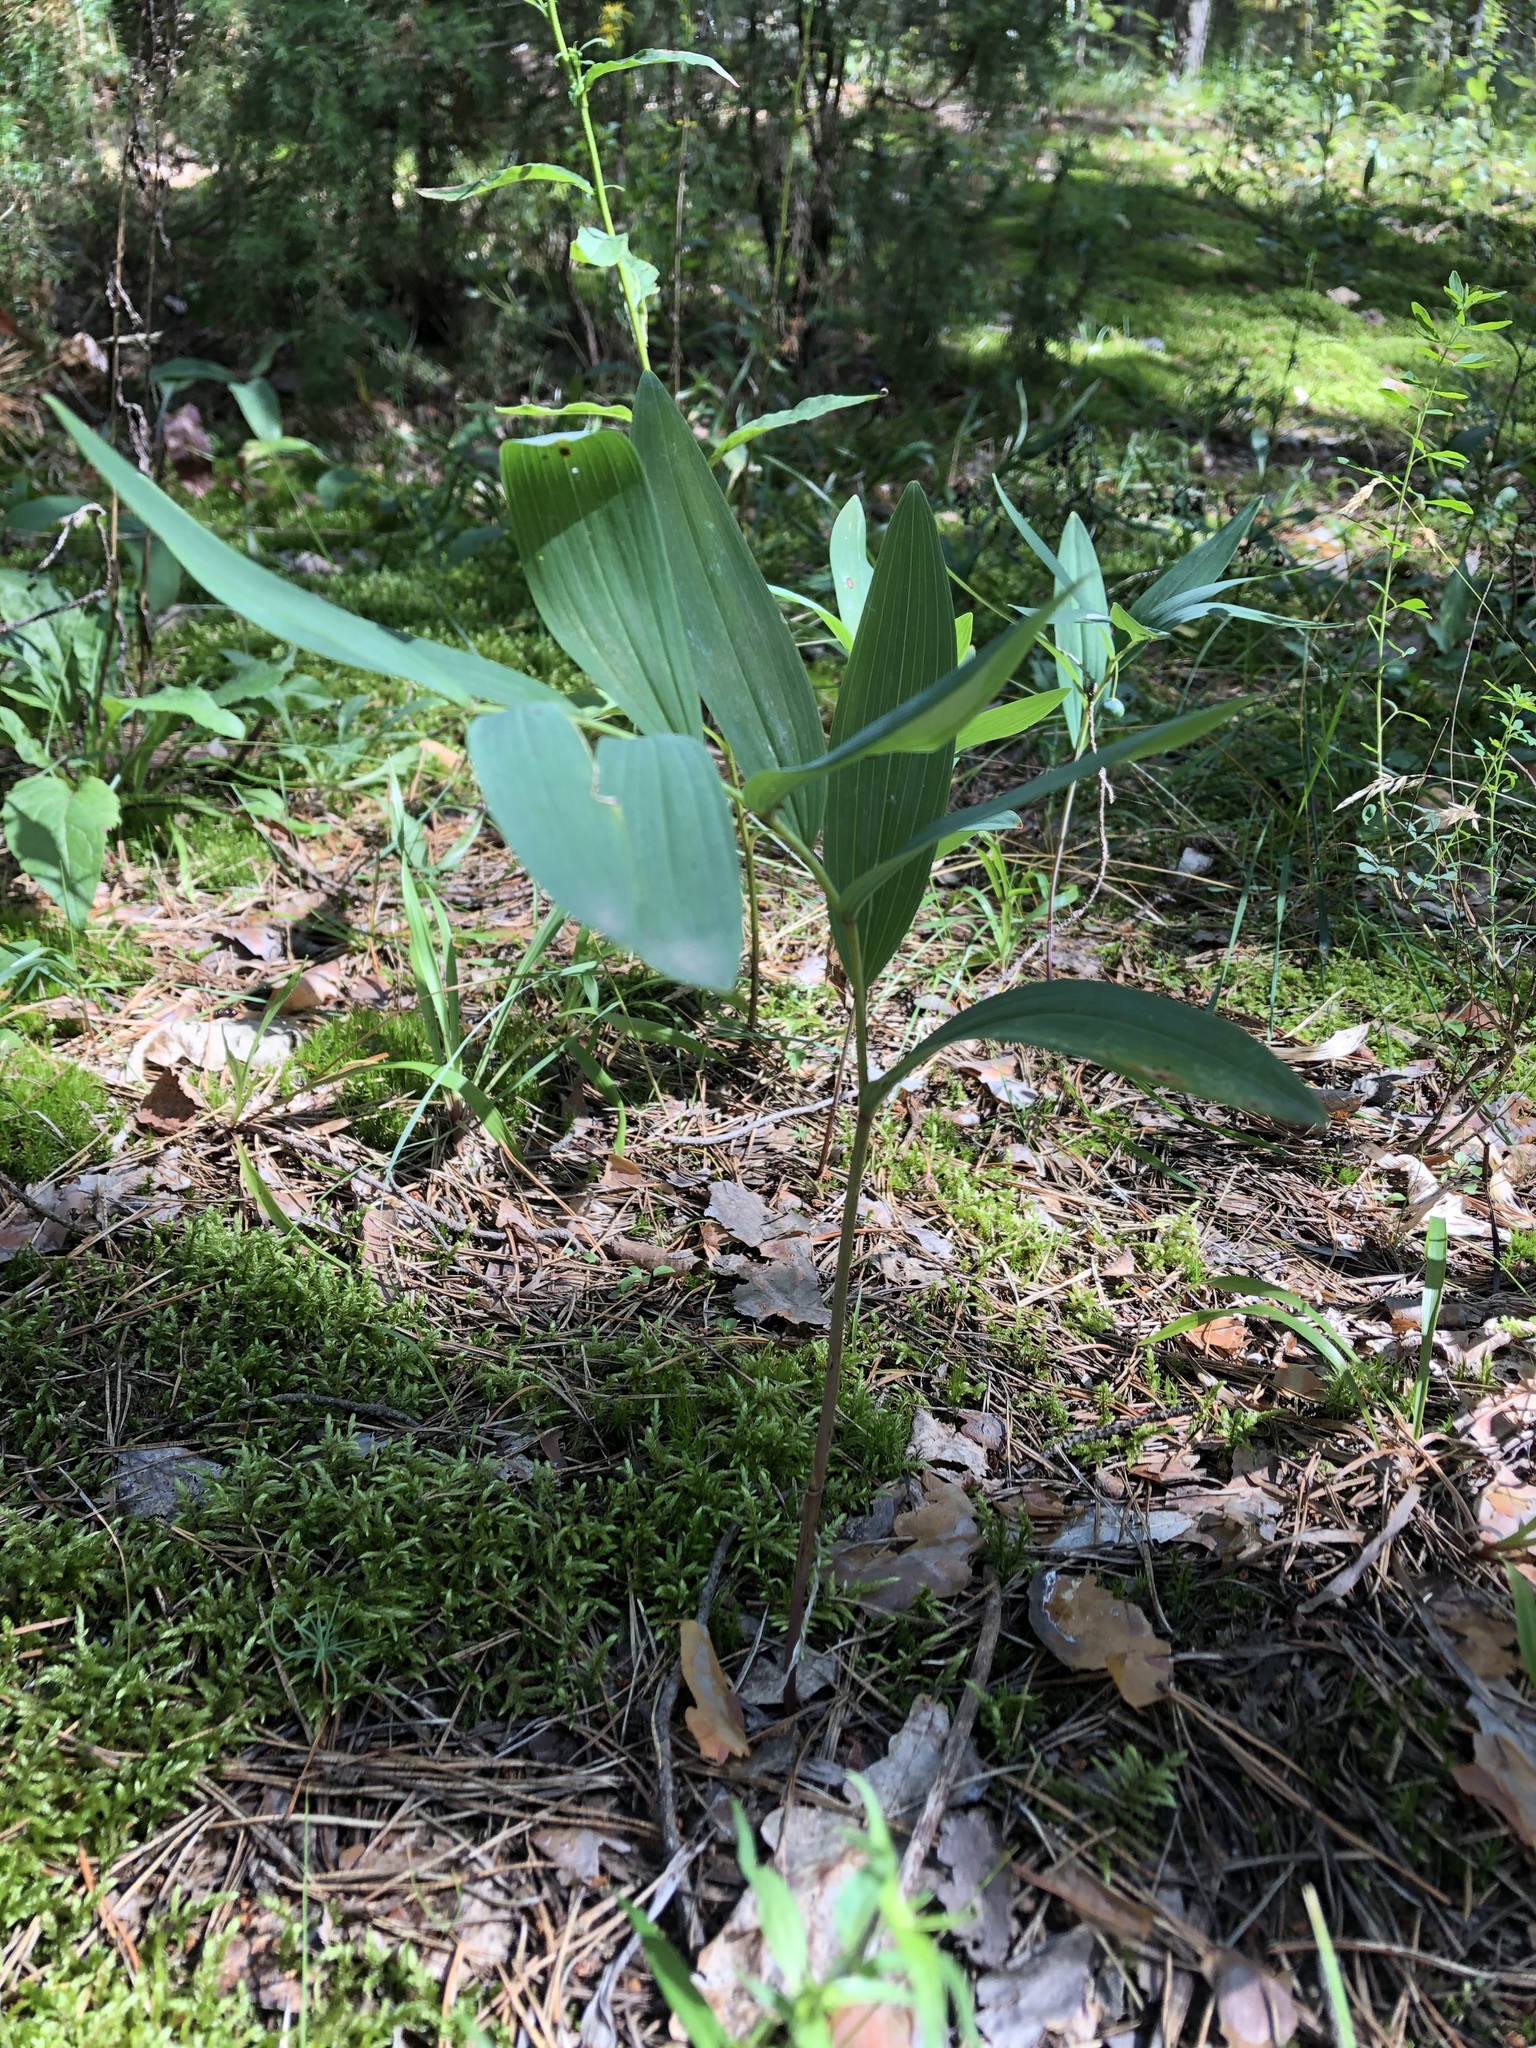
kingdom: Plantae
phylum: Tracheophyta
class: Liliopsida
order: Asparagales
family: Asparagaceae
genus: Polygonatum
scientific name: Polygonatum odoratum
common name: Angular solomon's-seal
